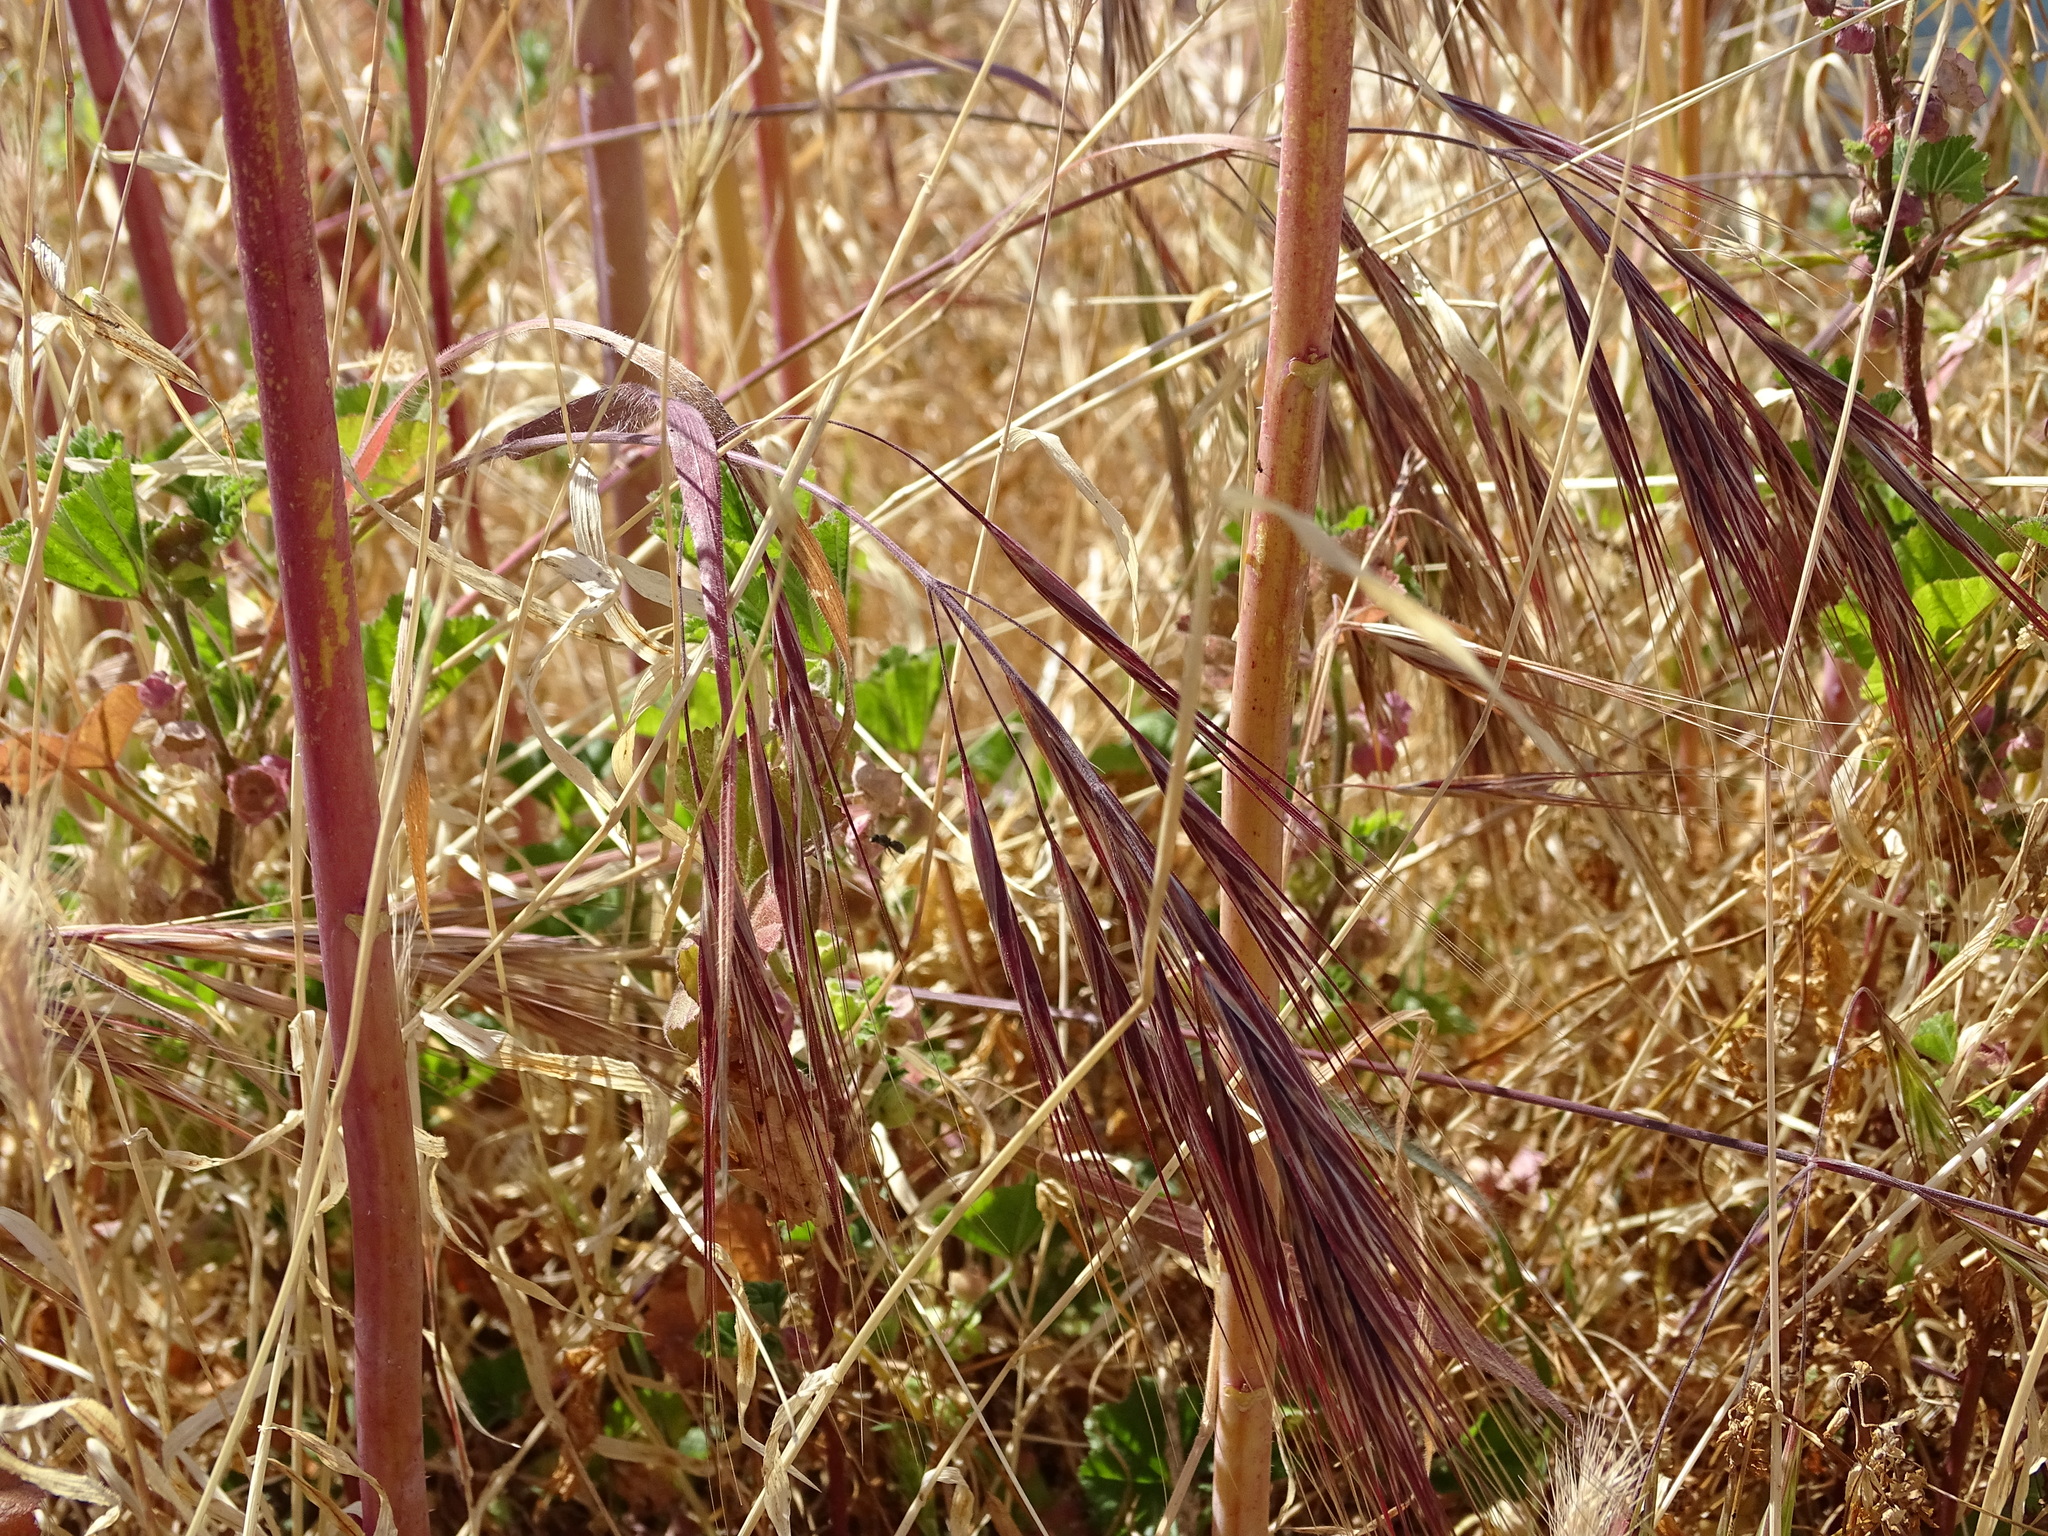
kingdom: Plantae
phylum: Tracheophyta
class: Liliopsida
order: Poales
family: Poaceae
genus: Bromus
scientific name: Bromus diandrus
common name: Ripgut brome
